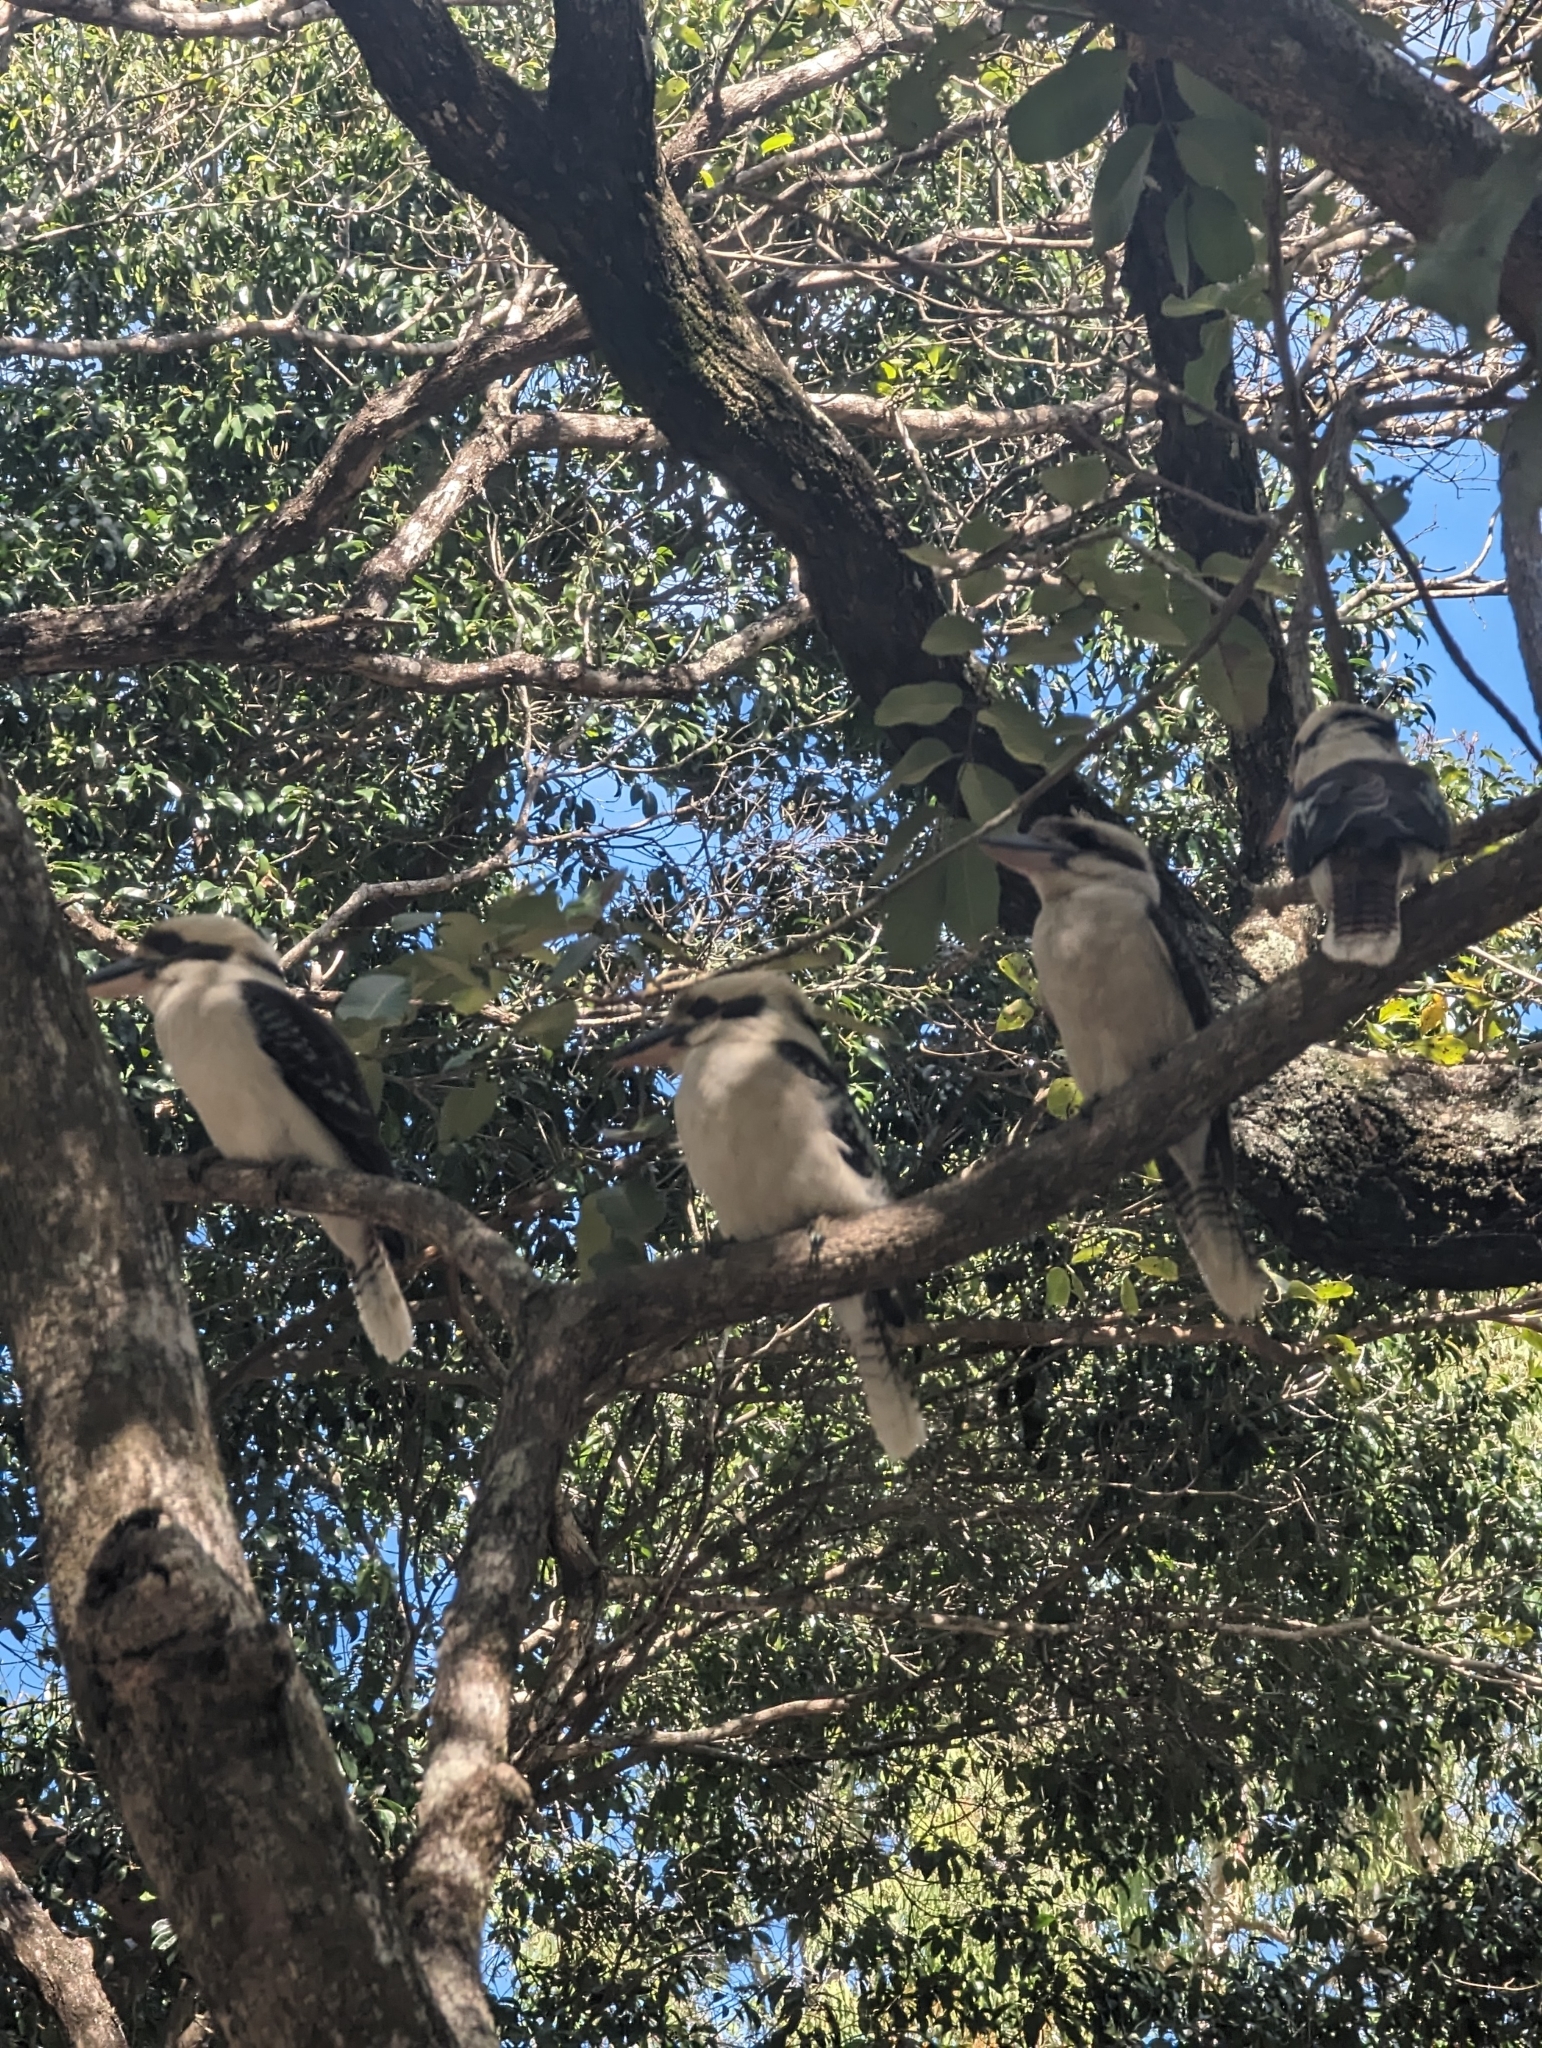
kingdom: Animalia
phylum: Chordata
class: Aves
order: Coraciiformes
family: Alcedinidae
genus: Dacelo
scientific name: Dacelo novaeguineae
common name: Laughing kookaburra
